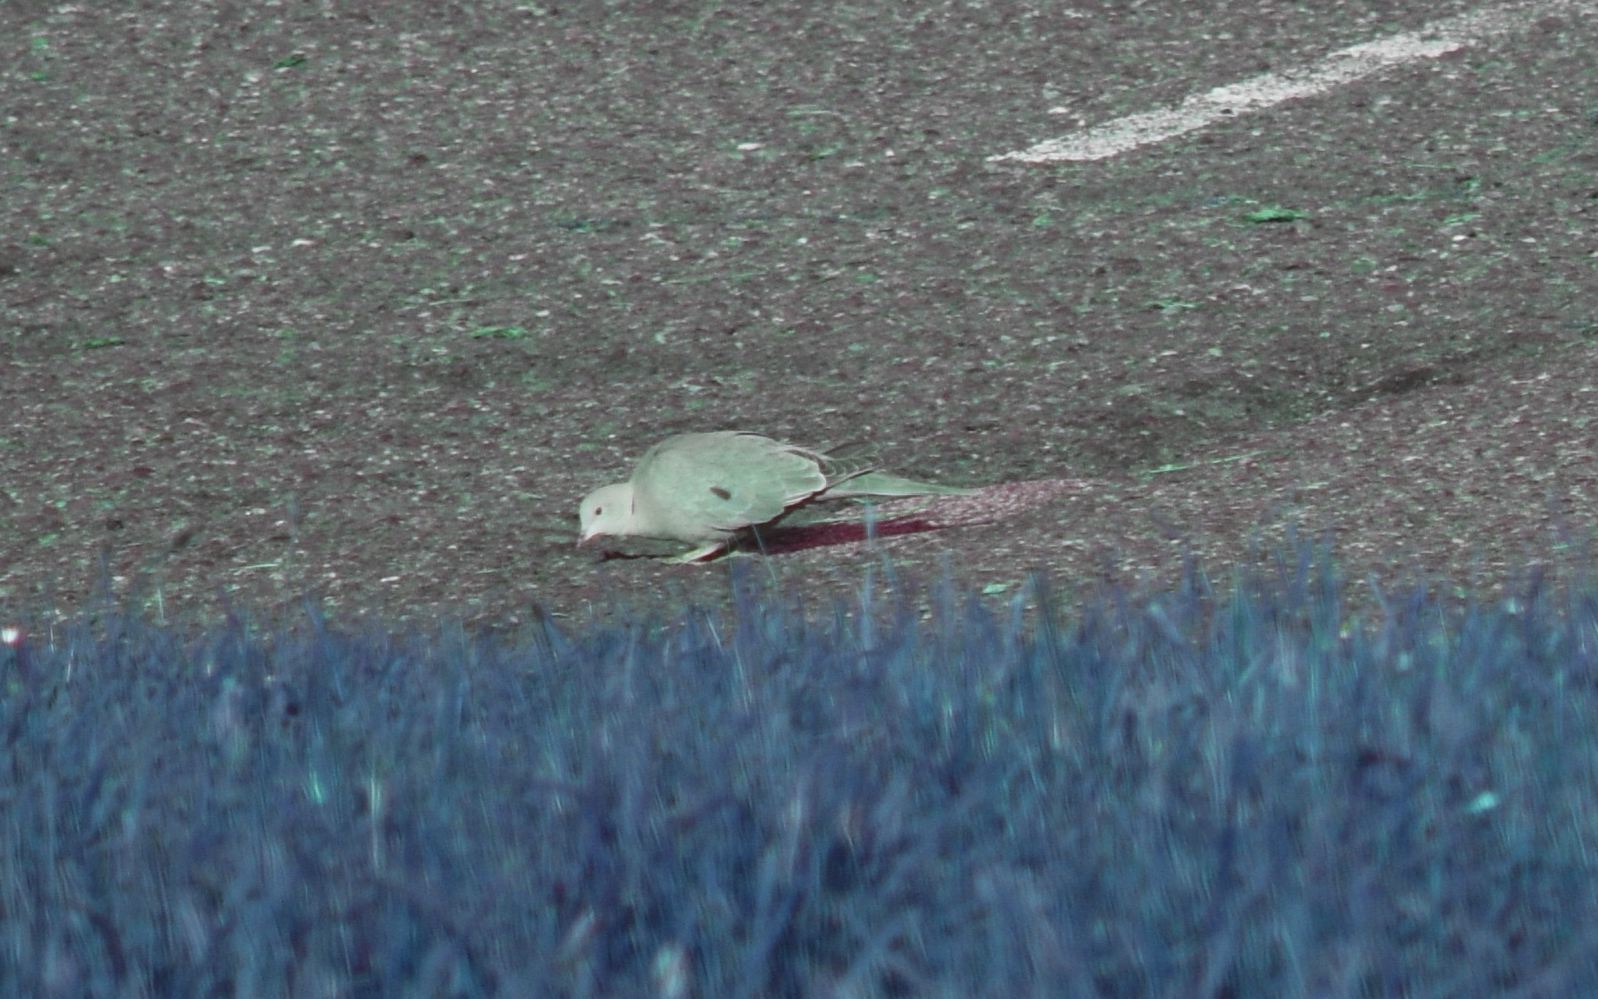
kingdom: Animalia
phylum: Chordata
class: Aves
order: Columbiformes
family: Columbidae
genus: Streptopelia
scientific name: Streptopelia decaocto
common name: Eurasian collared dove
